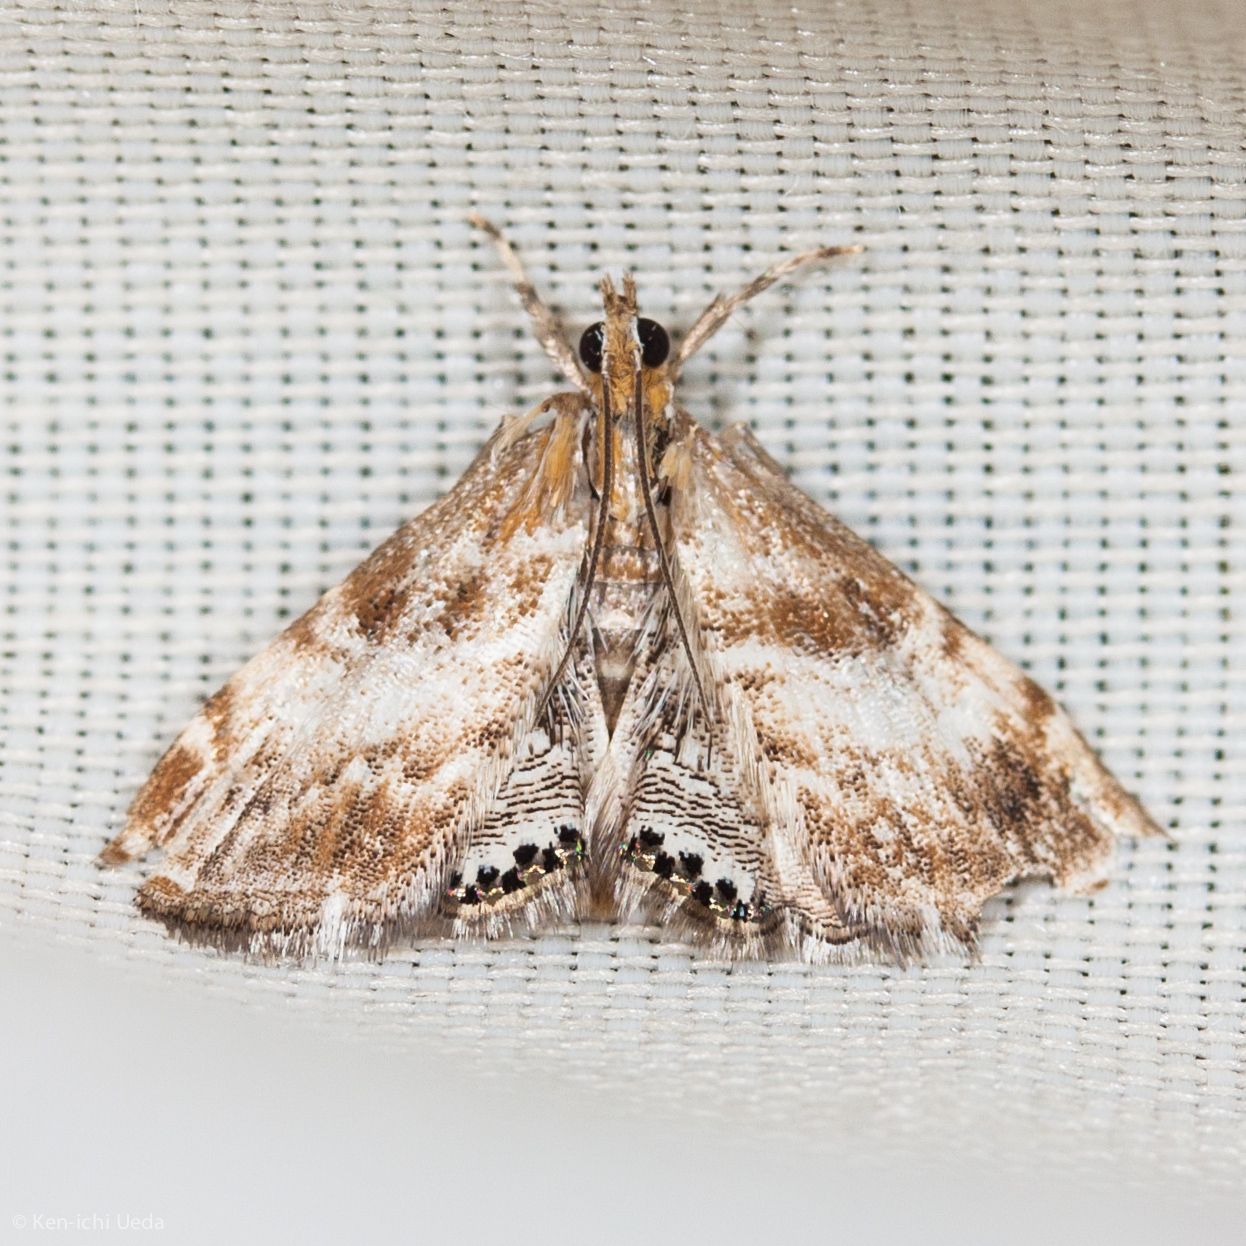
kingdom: Animalia
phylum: Arthropoda
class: Insecta
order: Lepidoptera
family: Crambidae
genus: Dicymolomia
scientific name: Dicymolomia metalliferalis
